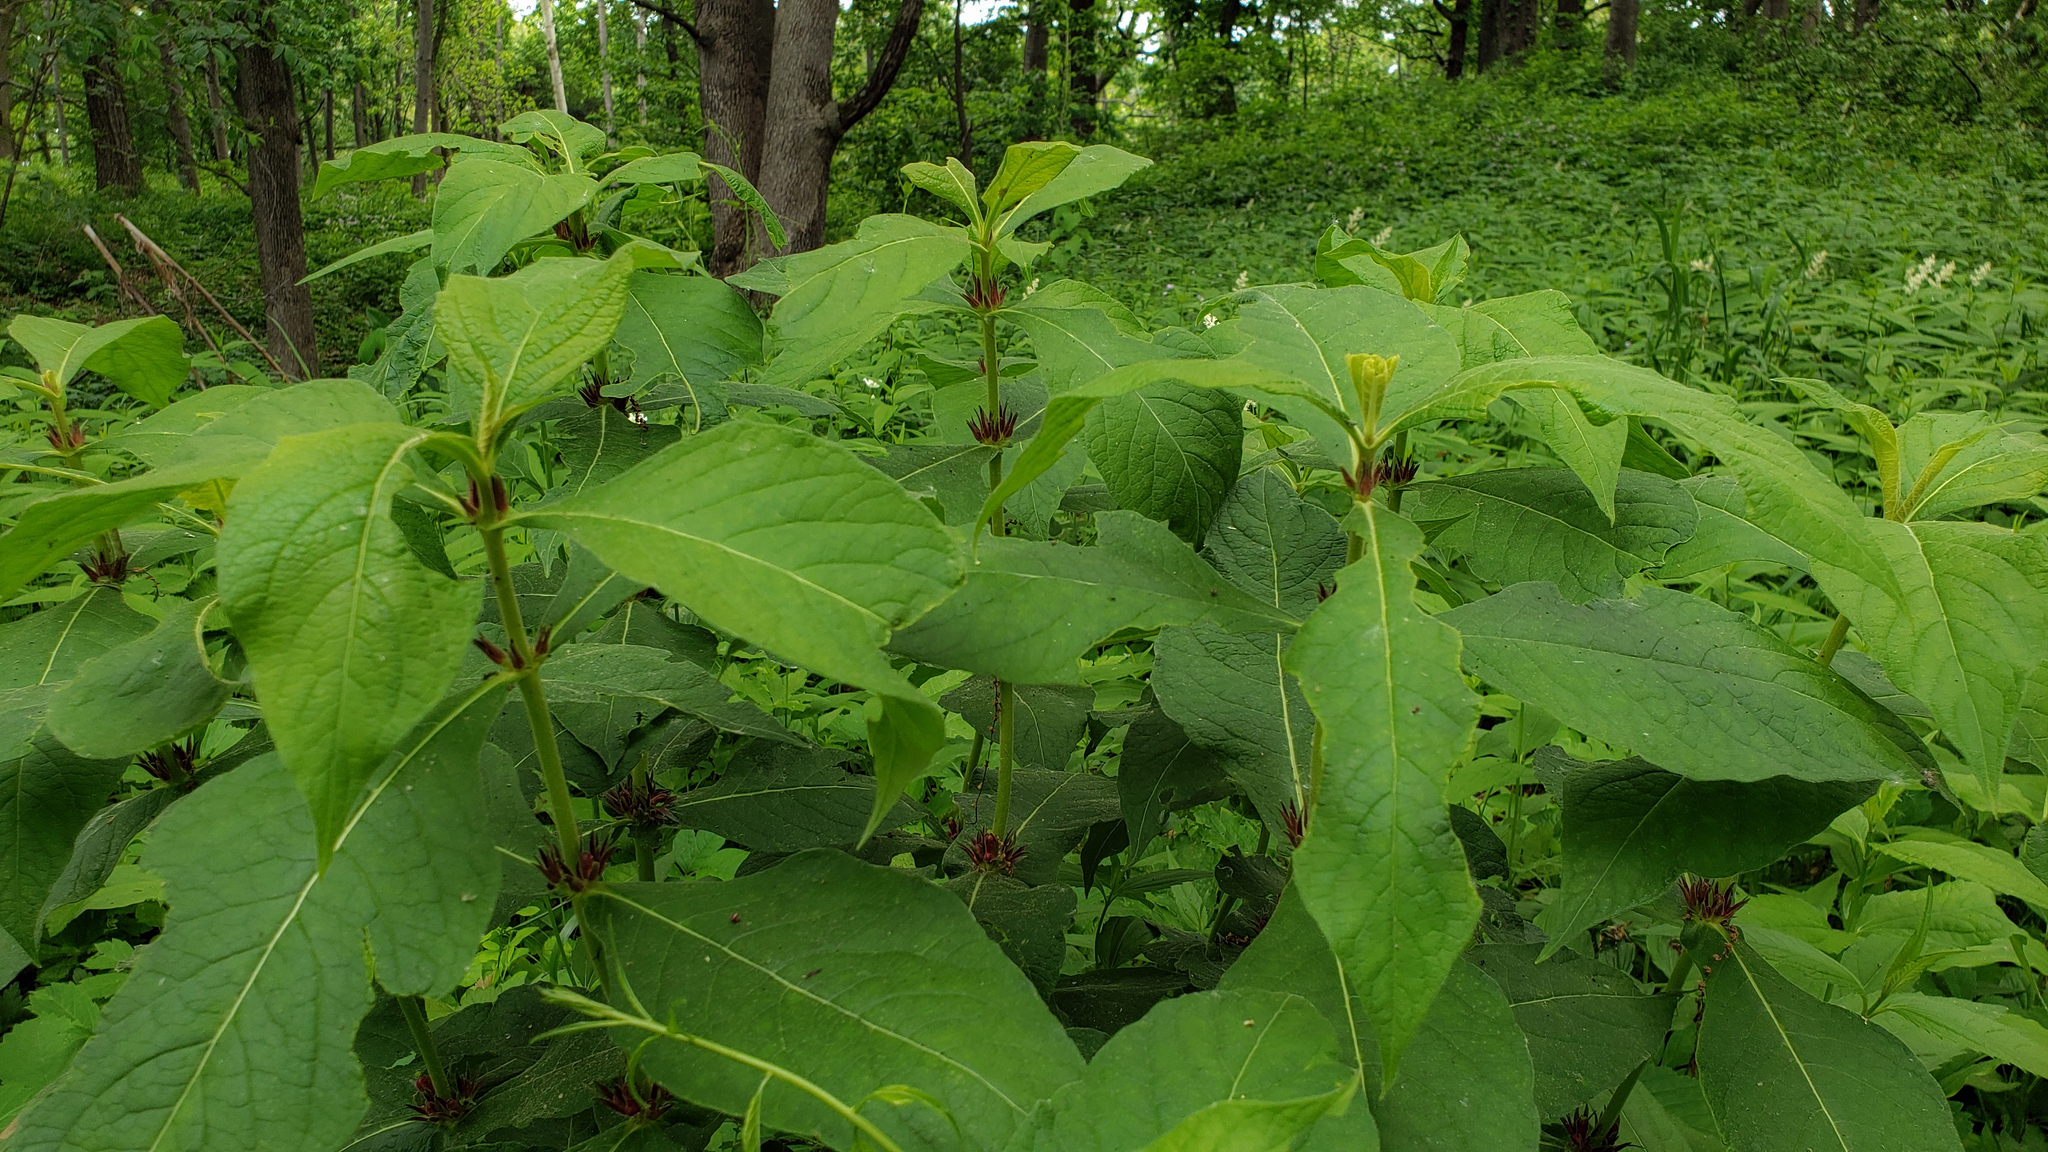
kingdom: Plantae
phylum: Tracheophyta
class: Magnoliopsida
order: Dipsacales
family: Caprifoliaceae
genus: Triosteum
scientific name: Triosteum aurantiacum
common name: Coffee tinker's-weed
